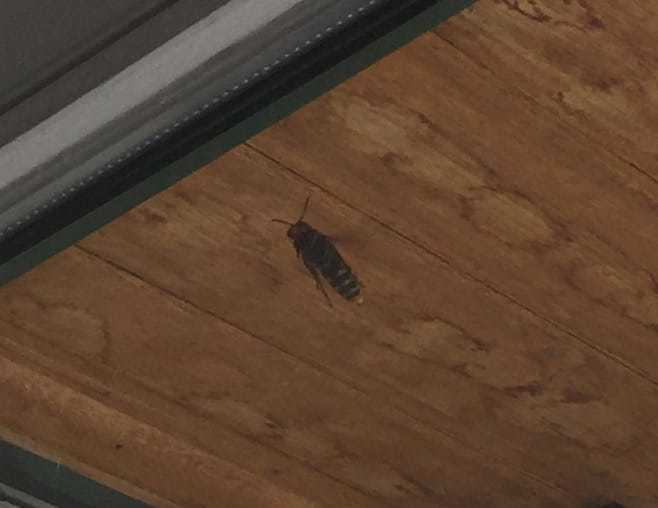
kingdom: Animalia
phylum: Arthropoda
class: Insecta
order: Hymenoptera
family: Vespidae
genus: Vespa
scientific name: Vespa crabro
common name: Hornet
